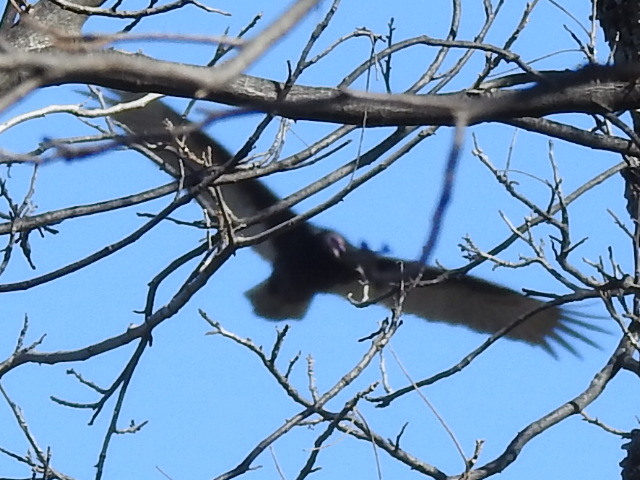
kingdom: Animalia
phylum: Chordata
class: Aves
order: Accipitriformes
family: Cathartidae
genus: Cathartes
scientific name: Cathartes aura
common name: Turkey vulture
